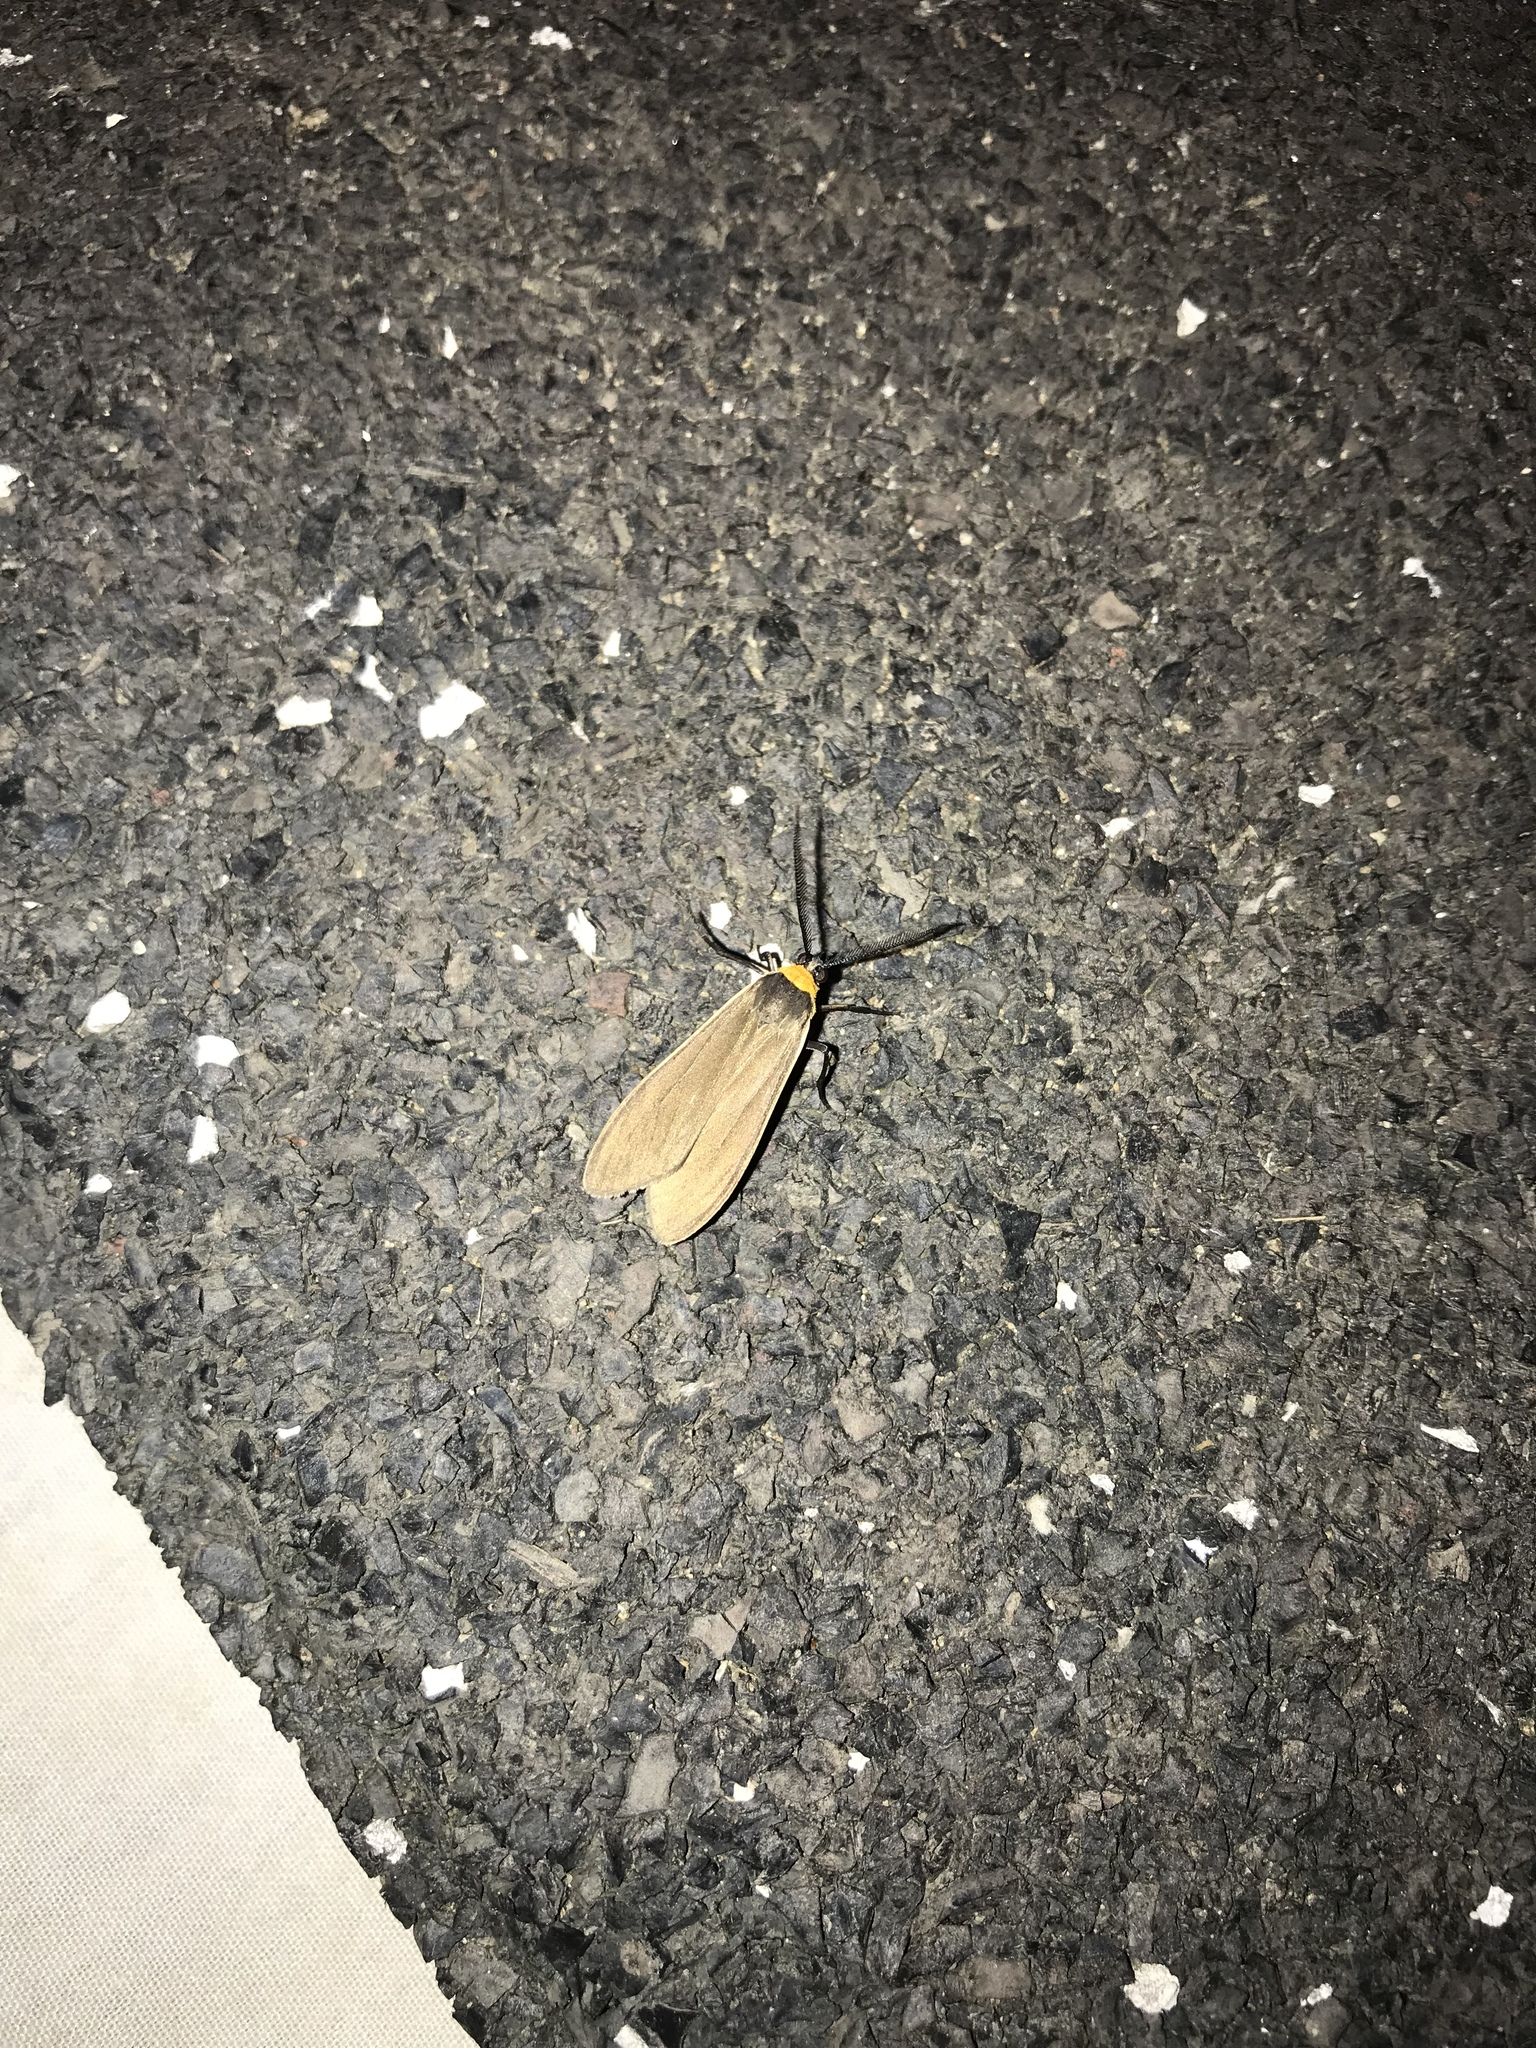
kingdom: Animalia
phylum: Arthropoda
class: Insecta
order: Lepidoptera
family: Erebidae
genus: Cisseps
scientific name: Cisseps fulvicollis
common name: Yellow-collared scape moth
